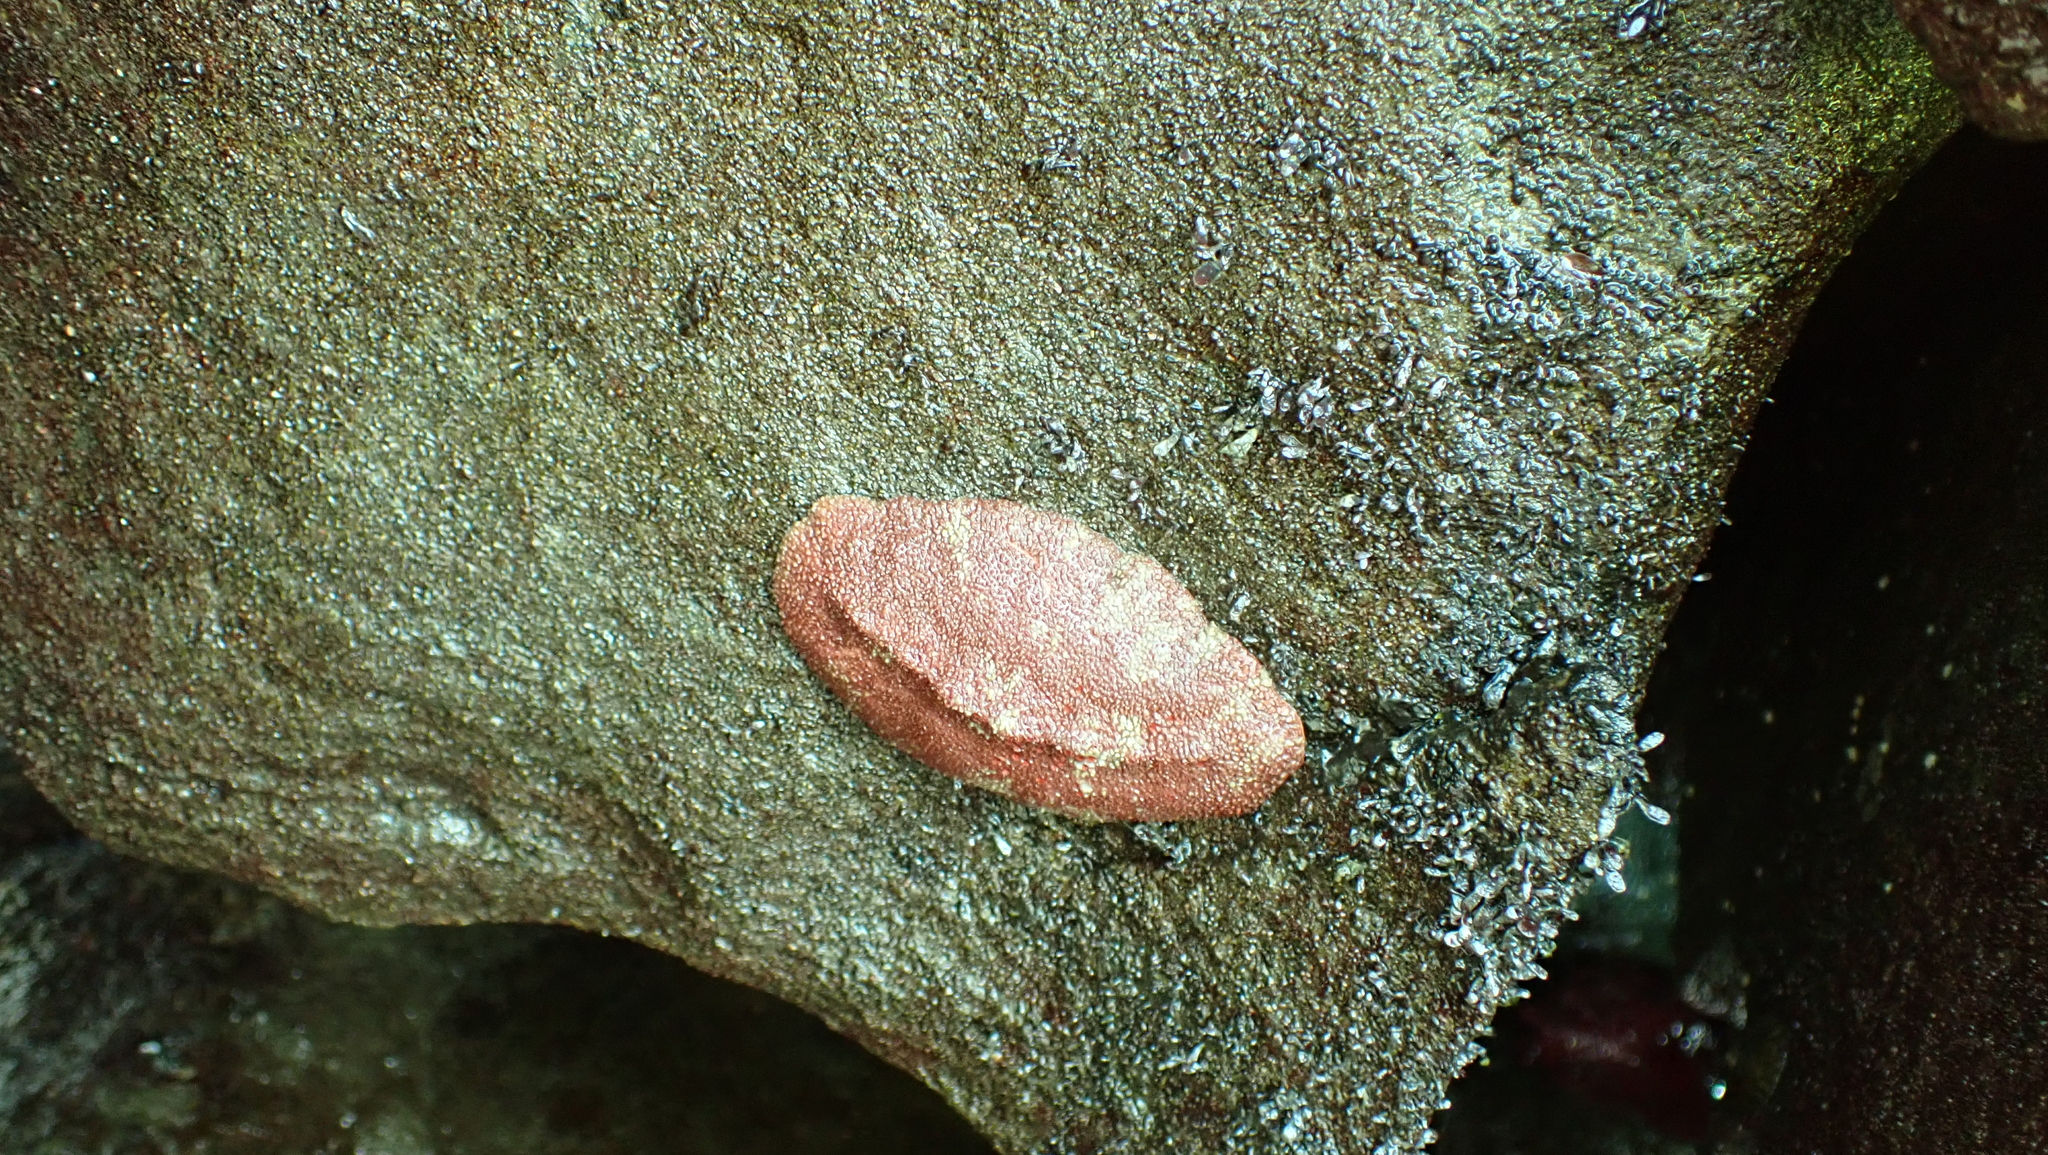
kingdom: Animalia
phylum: Mollusca
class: Polyplacophora
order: Chitonida
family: Acanthochitonidae
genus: Cryptochiton
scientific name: Cryptochiton stelleri
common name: Giant pacific chiton
